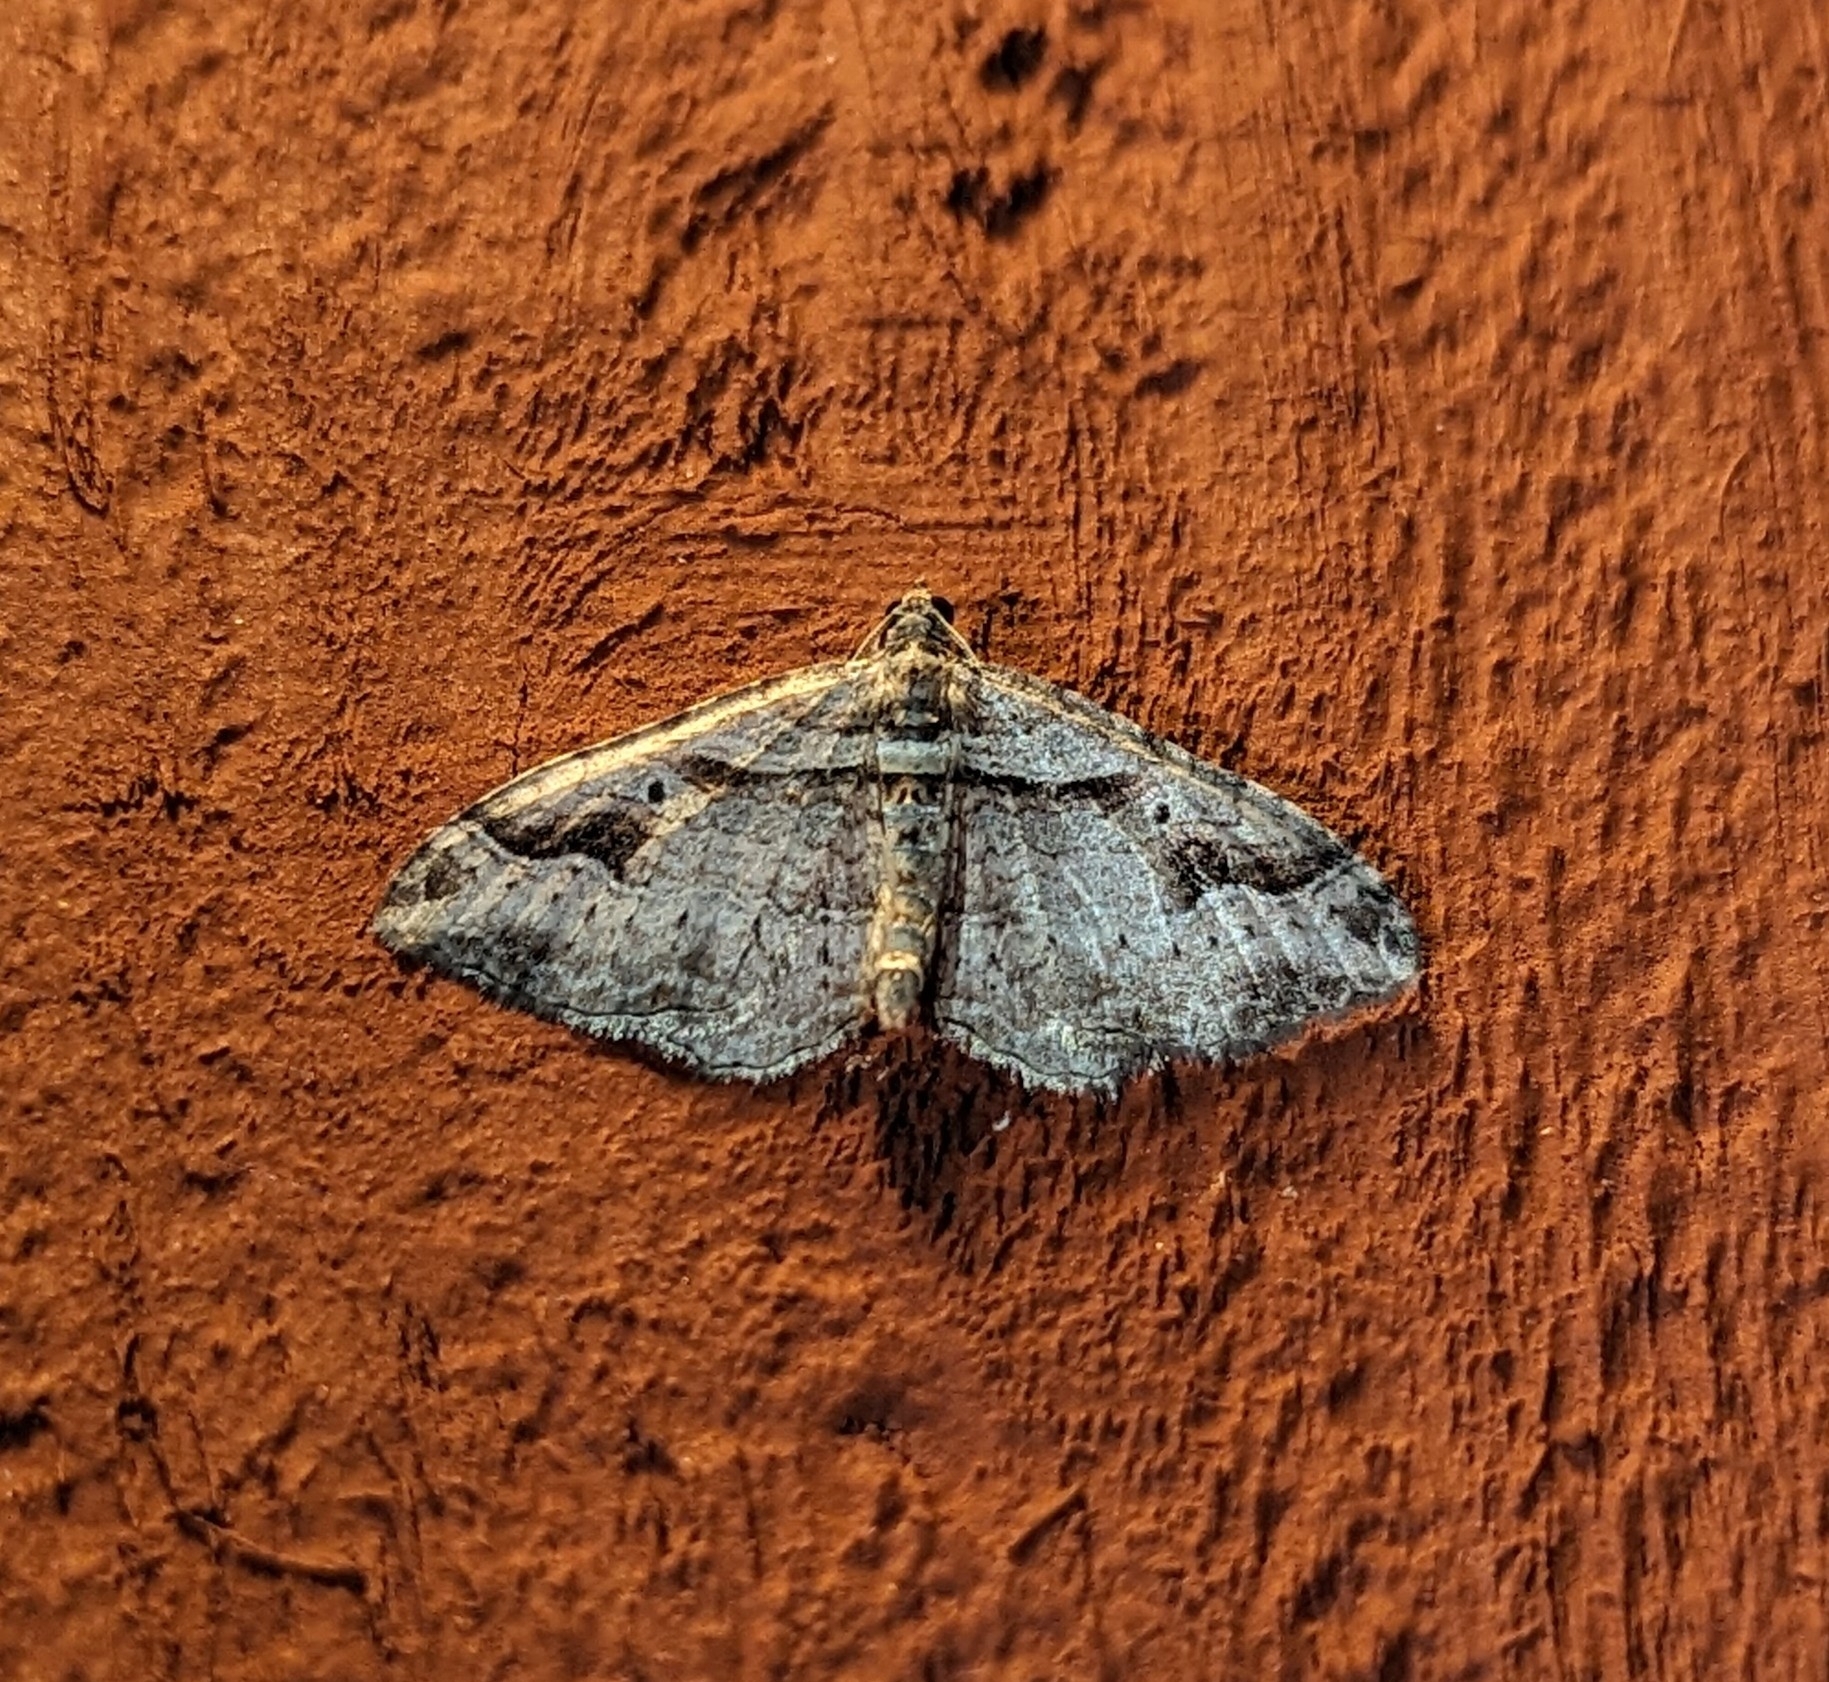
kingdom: Animalia
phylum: Arthropoda
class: Insecta
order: Lepidoptera
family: Geometridae
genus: Costaconvexa
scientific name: Costaconvexa centrostrigaria
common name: Bent-line carpet
